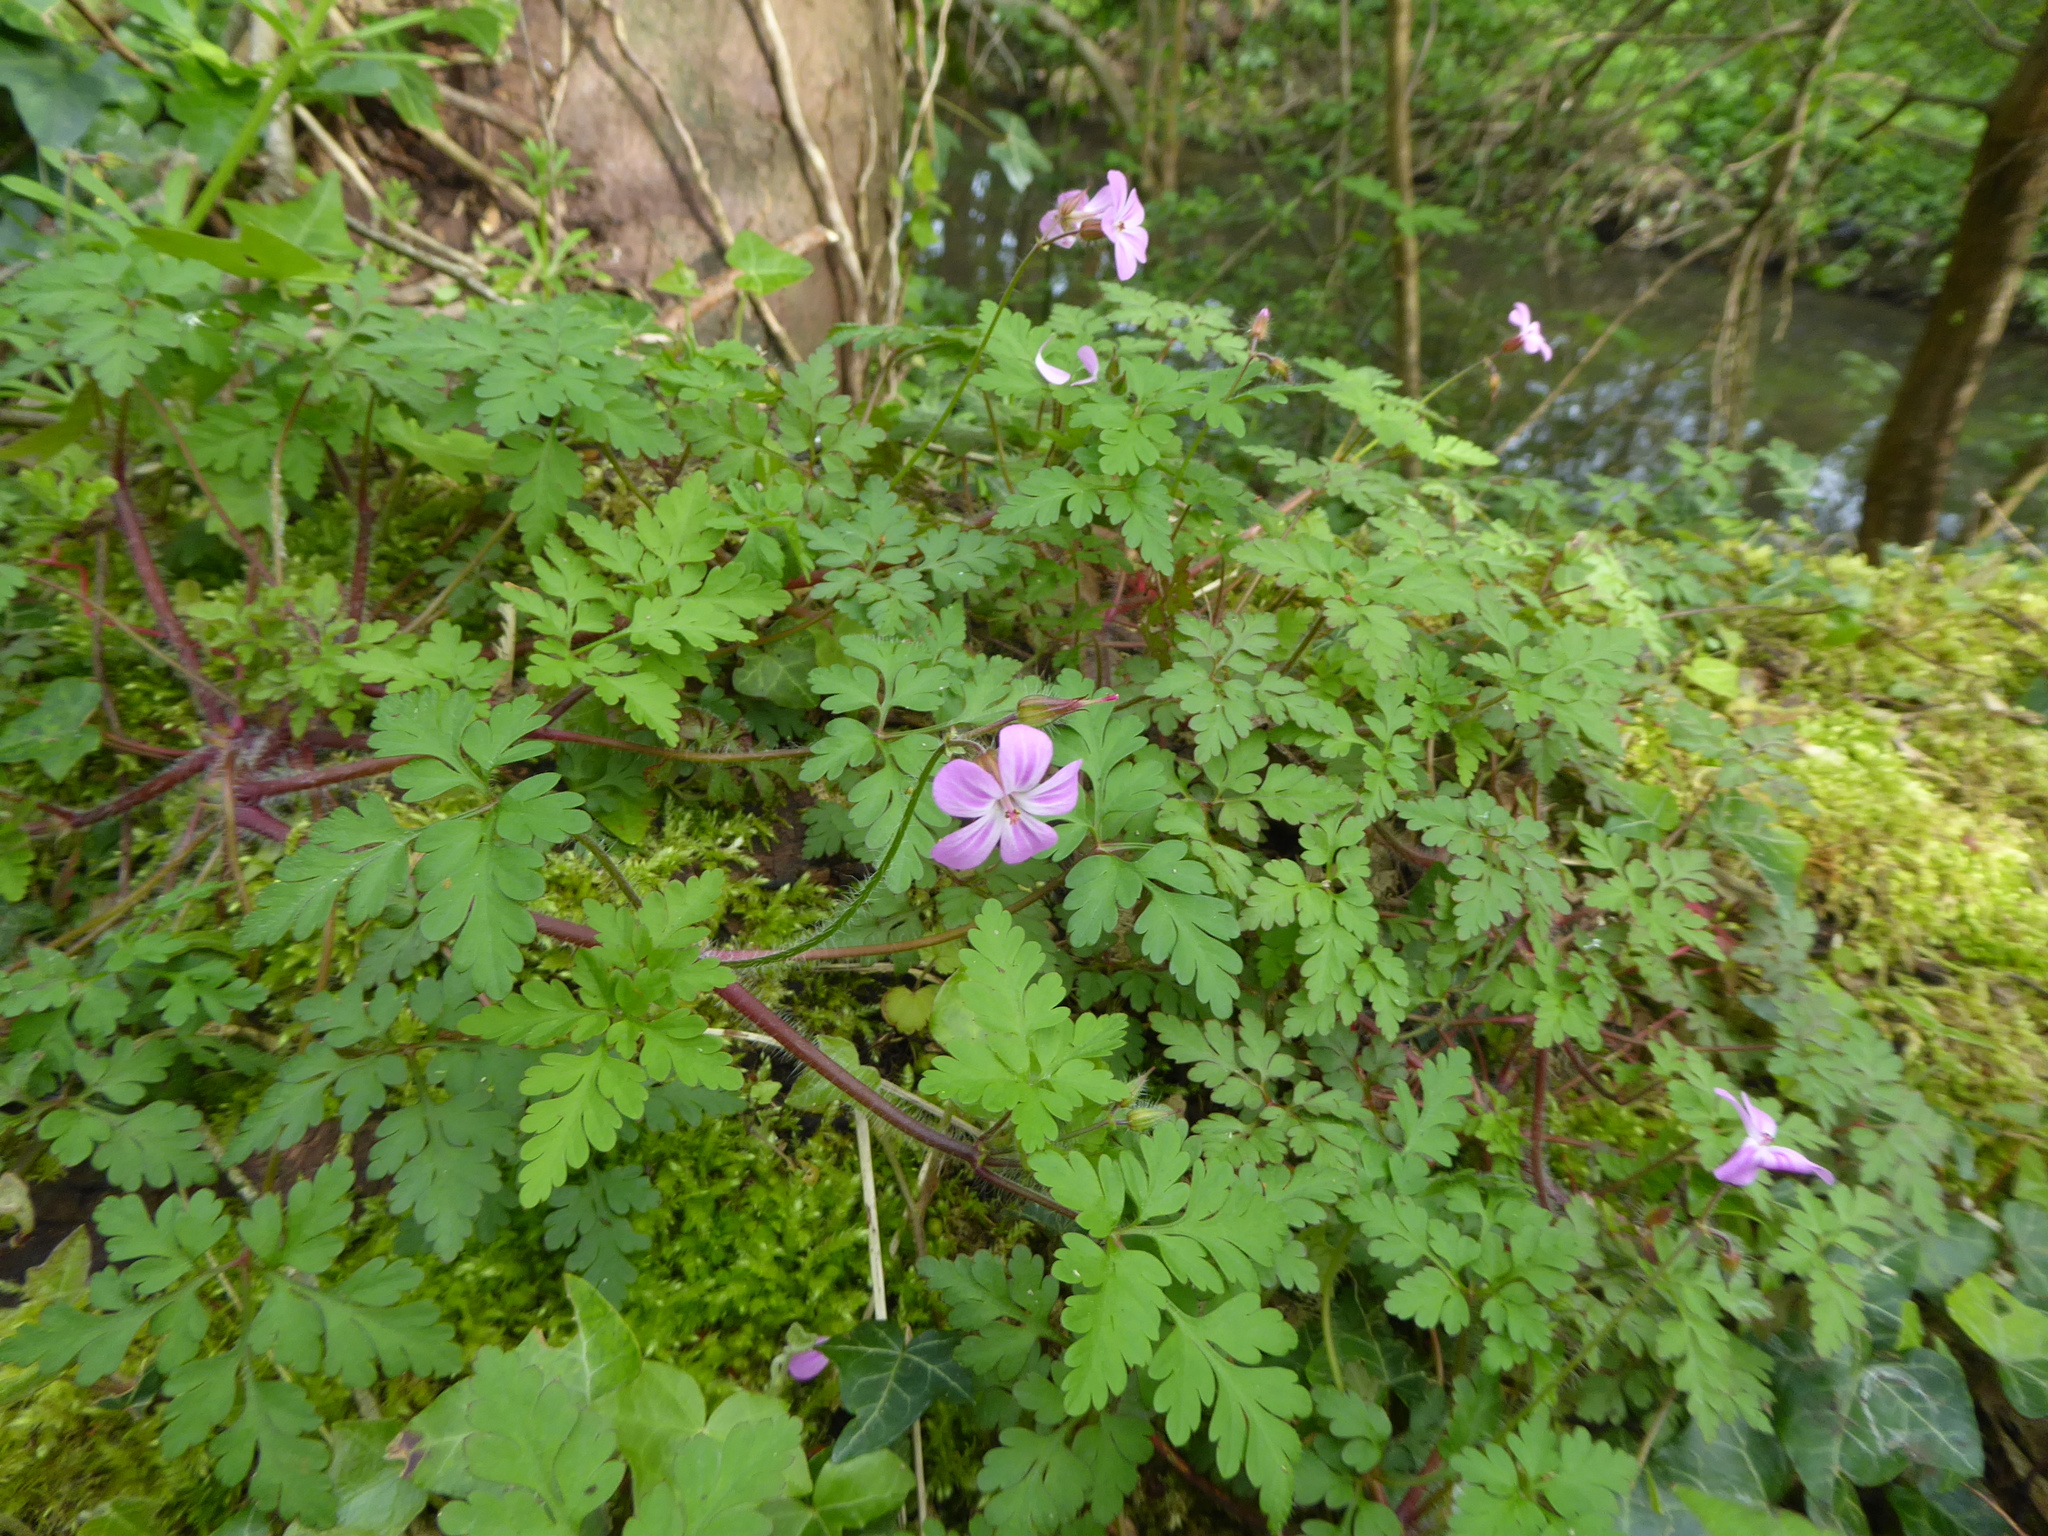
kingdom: Plantae
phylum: Tracheophyta
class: Magnoliopsida
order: Geraniales
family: Geraniaceae
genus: Geranium
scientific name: Geranium robertianum
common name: Herb-robert
